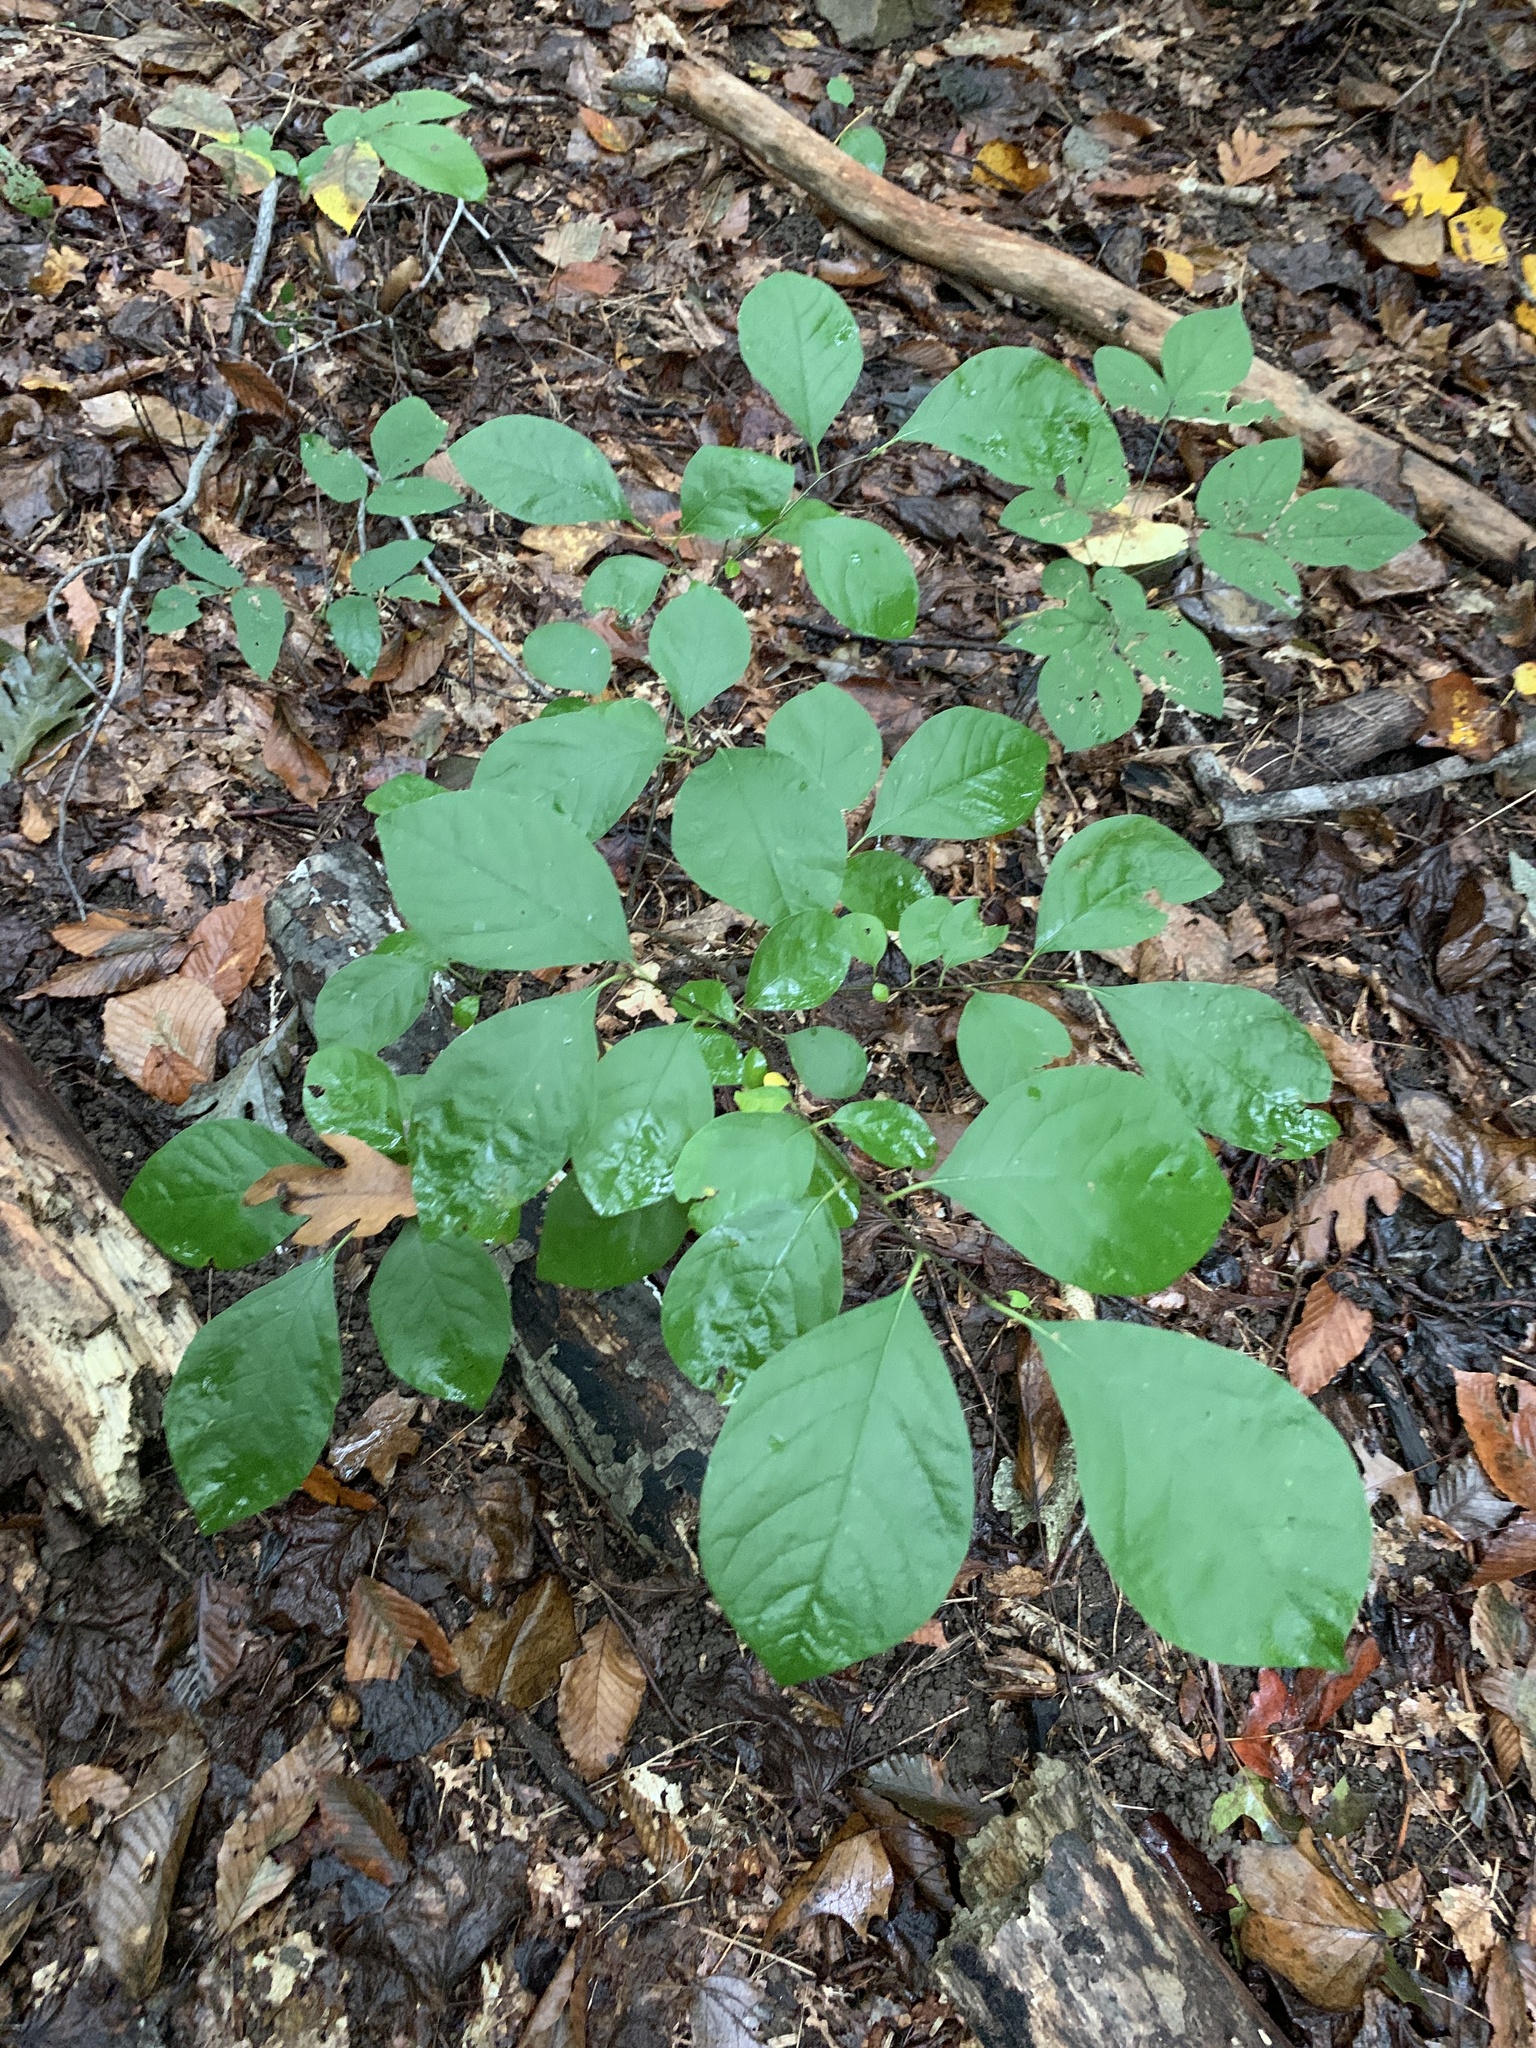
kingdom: Plantae
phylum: Tracheophyta
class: Magnoliopsida
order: Laurales
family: Lauraceae
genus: Lindera
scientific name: Lindera benzoin
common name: Spicebush
